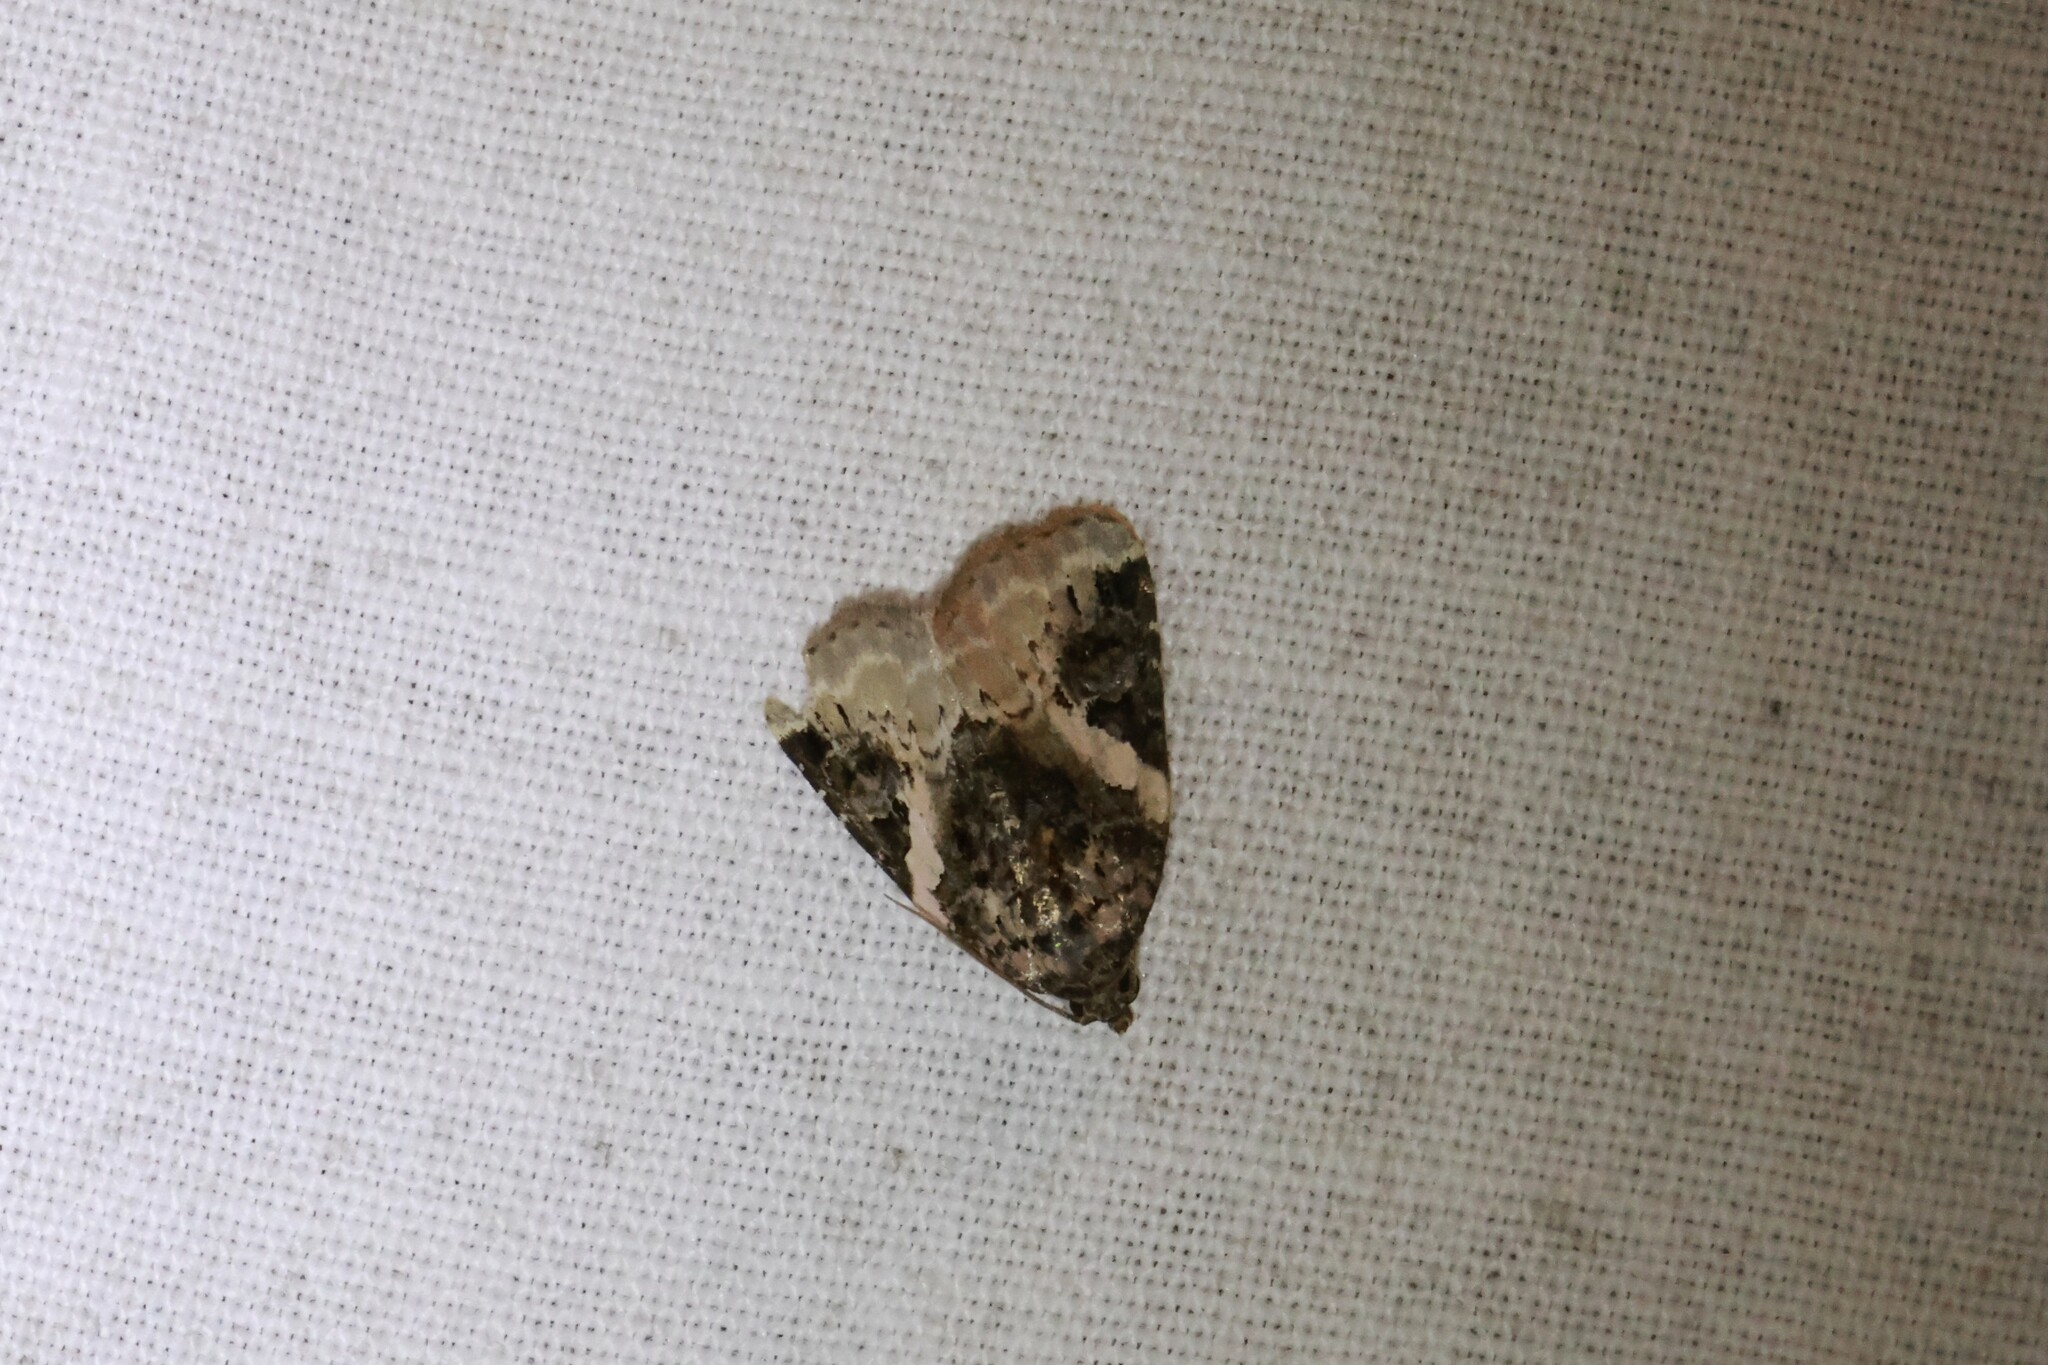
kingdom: Animalia
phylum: Arthropoda
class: Insecta
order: Lepidoptera
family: Noctuidae
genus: Pseudeustrotia
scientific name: Pseudeustrotia carneola
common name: Pink-barred lithacodia moth
